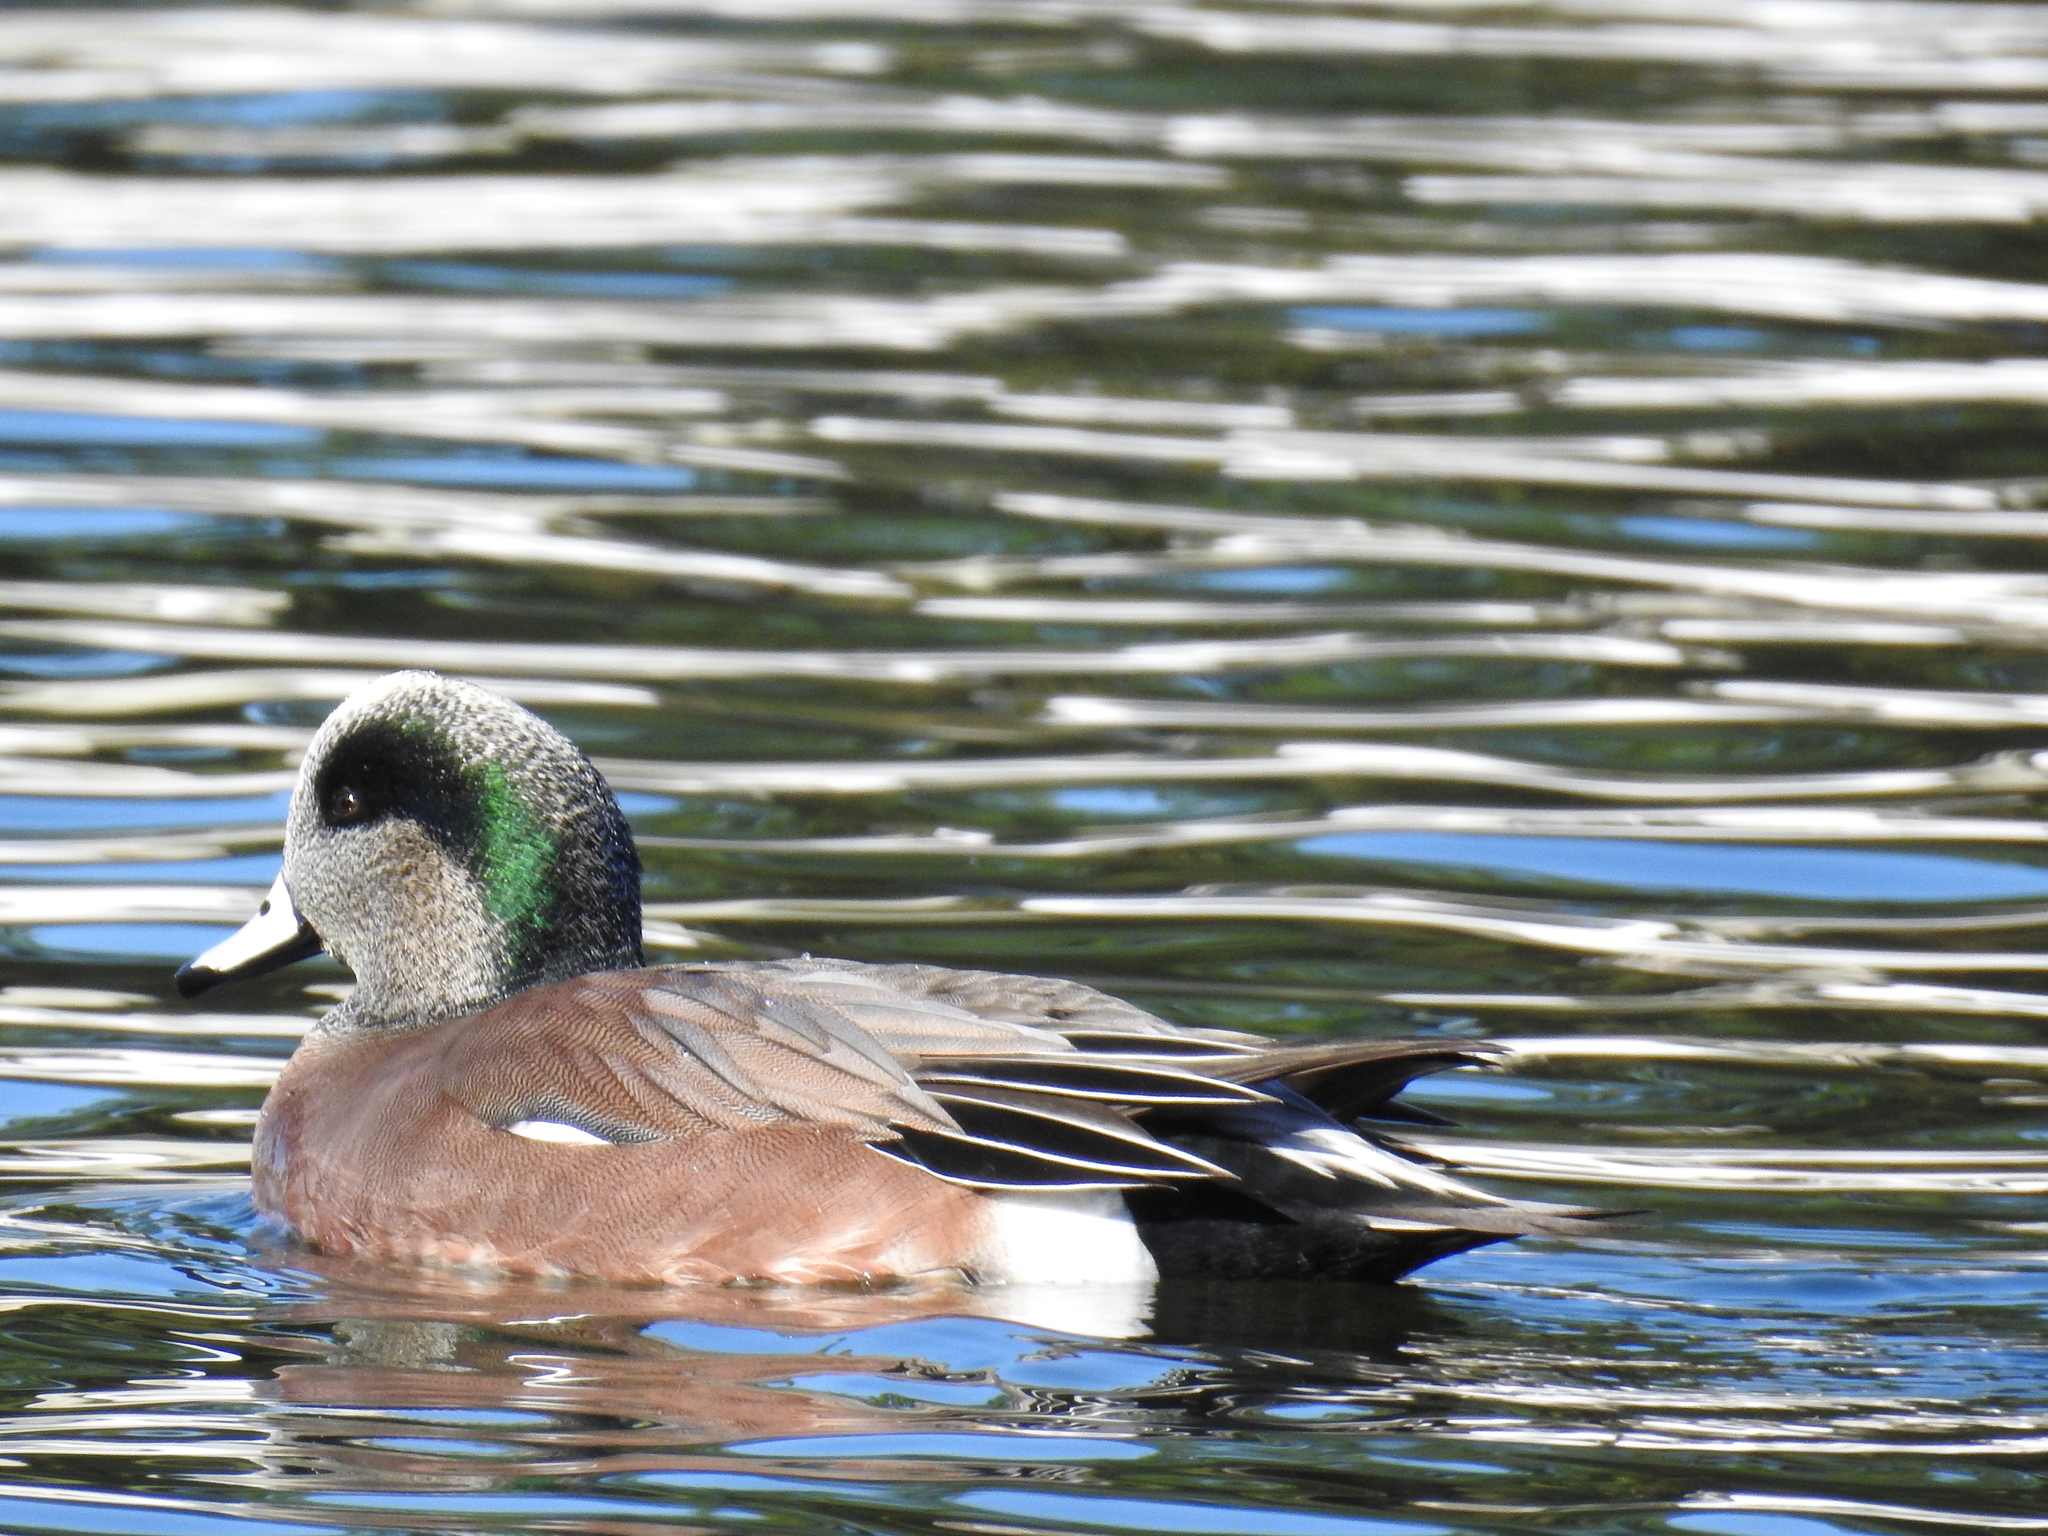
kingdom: Animalia
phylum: Chordata
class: Aves
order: Anseriformes
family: Anatidae
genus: Mareca
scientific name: Mareca americana
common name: American wigeon
